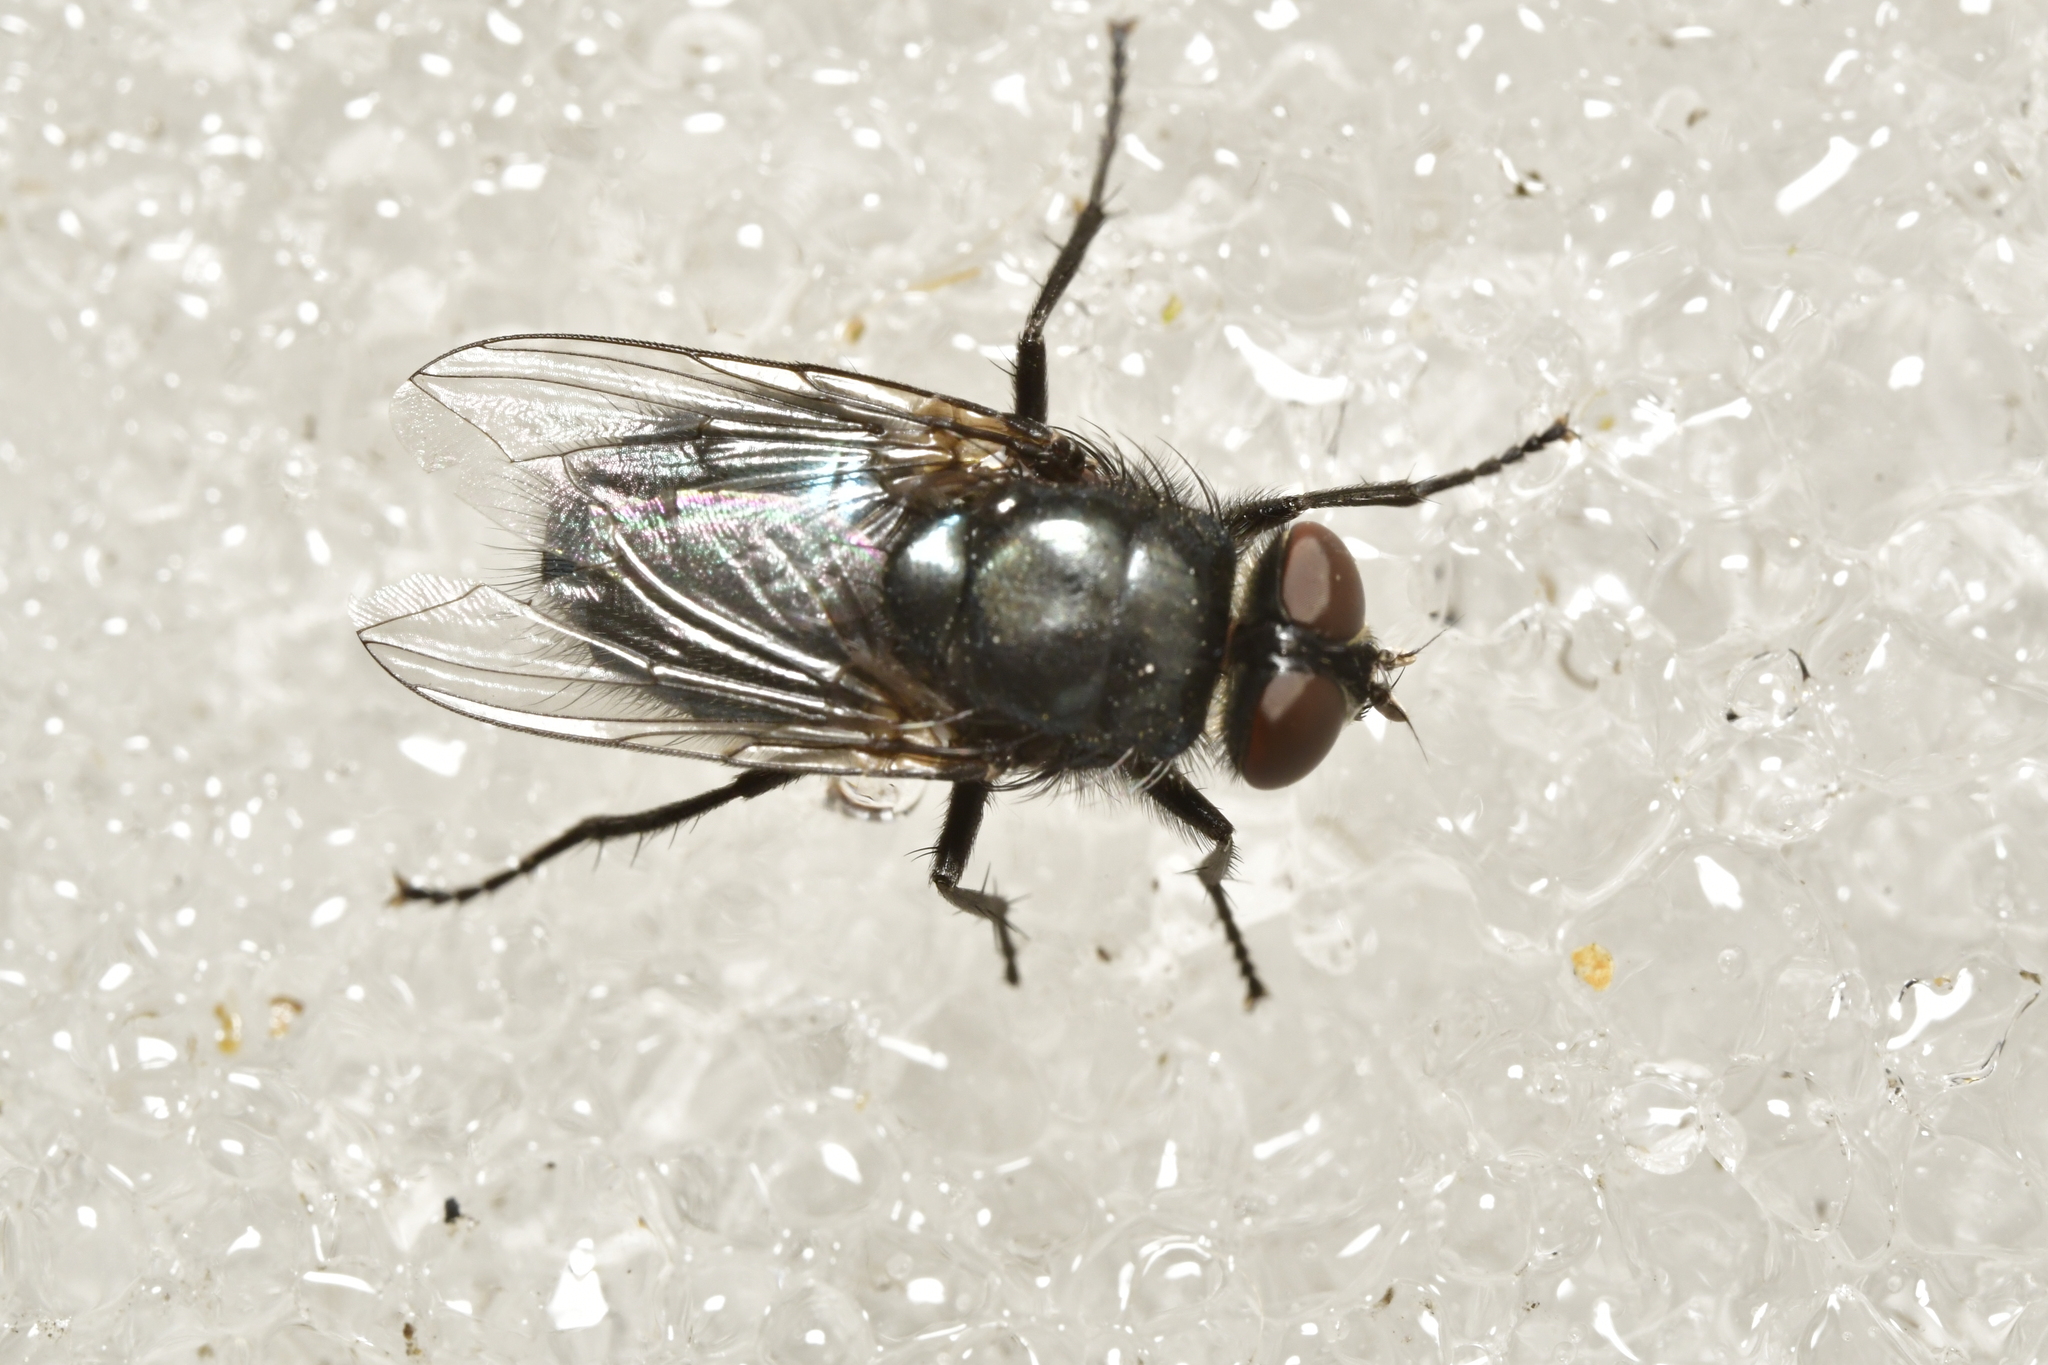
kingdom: Animalia
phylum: Arthropoda
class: Insecta
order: Diptera
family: Calliphoridae
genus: Protophormia
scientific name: Protophormia terraenovae
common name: Blackbottle
